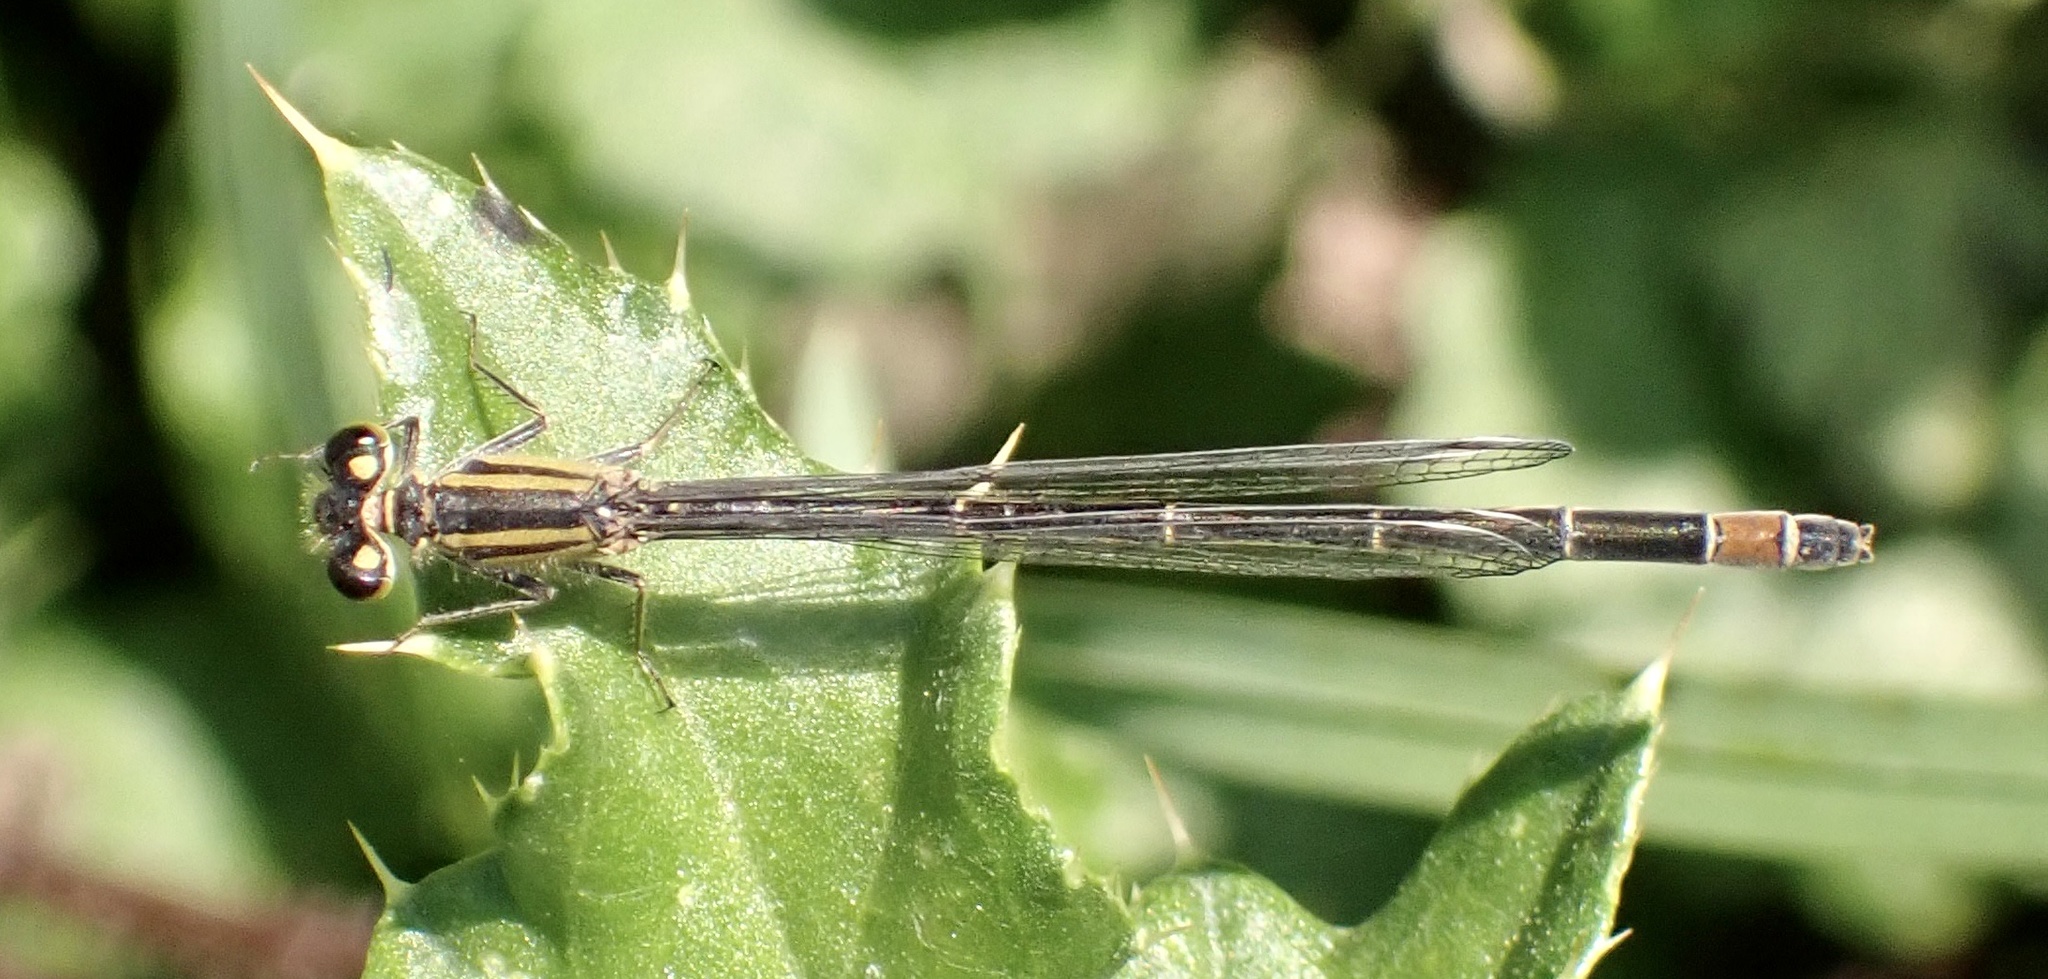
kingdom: Animalia
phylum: Arthropoda
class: Insecta
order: Odonata
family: Coenagrionidae
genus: Ischnura
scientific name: Ischnura elegans
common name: Blue-tailed damselfly
